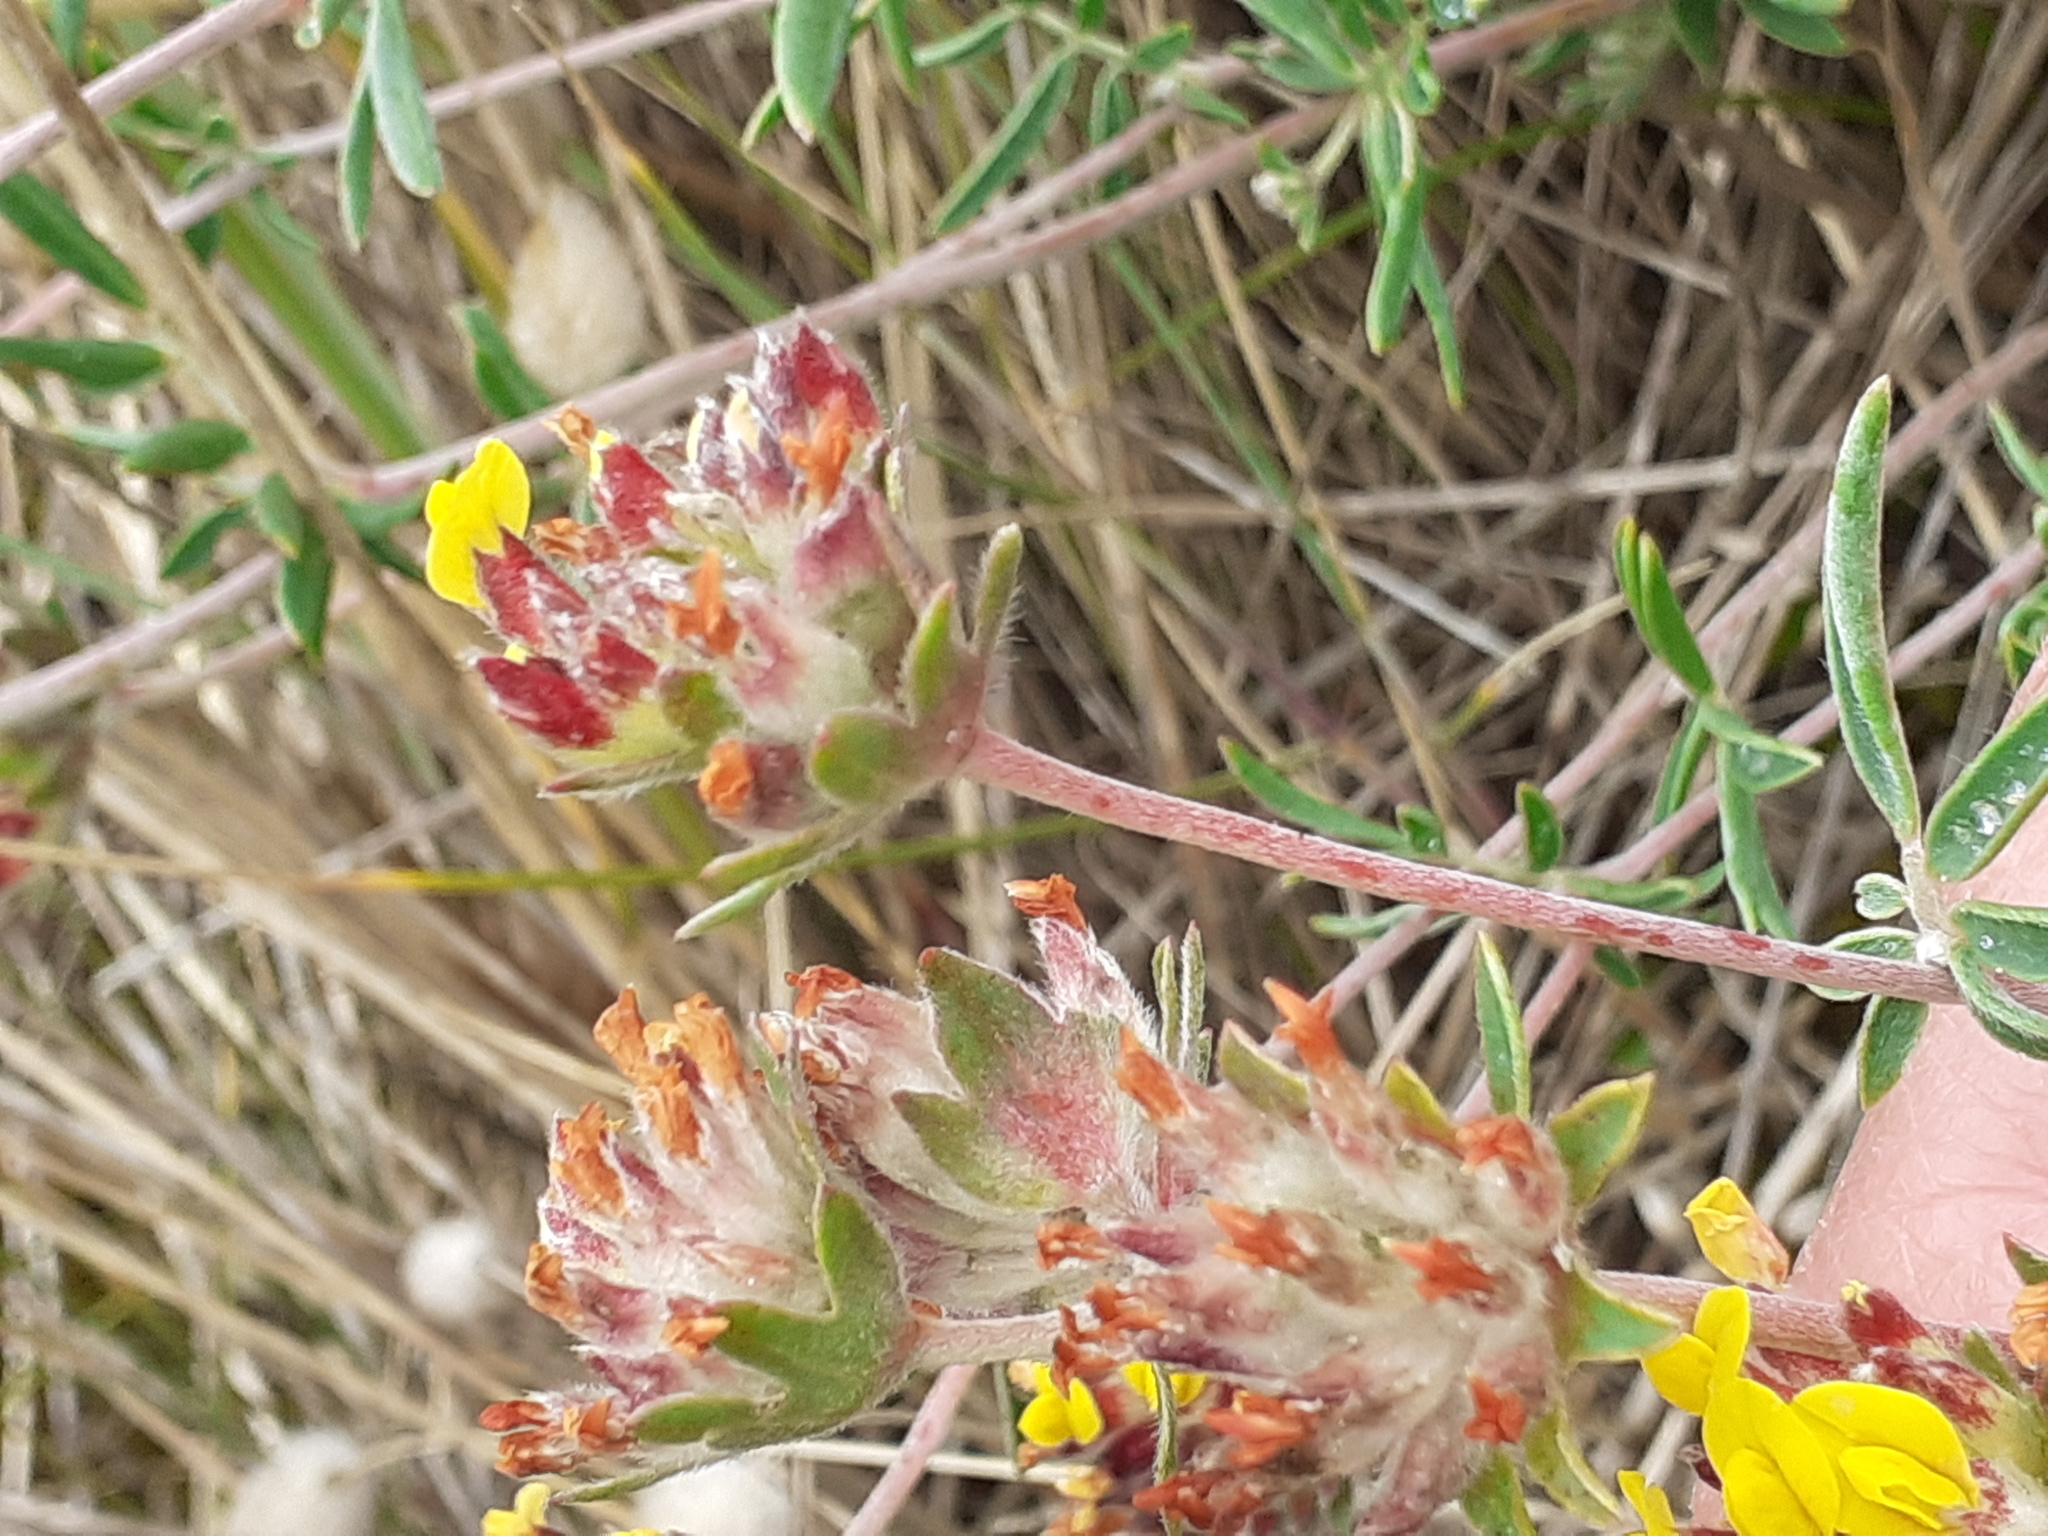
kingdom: Plantae
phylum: Tracheophyta
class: Magnoliopsida
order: Fabales
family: Fabaceae
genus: Anthyllis
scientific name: Anthyllis vulneraria
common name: Kidney vetch
